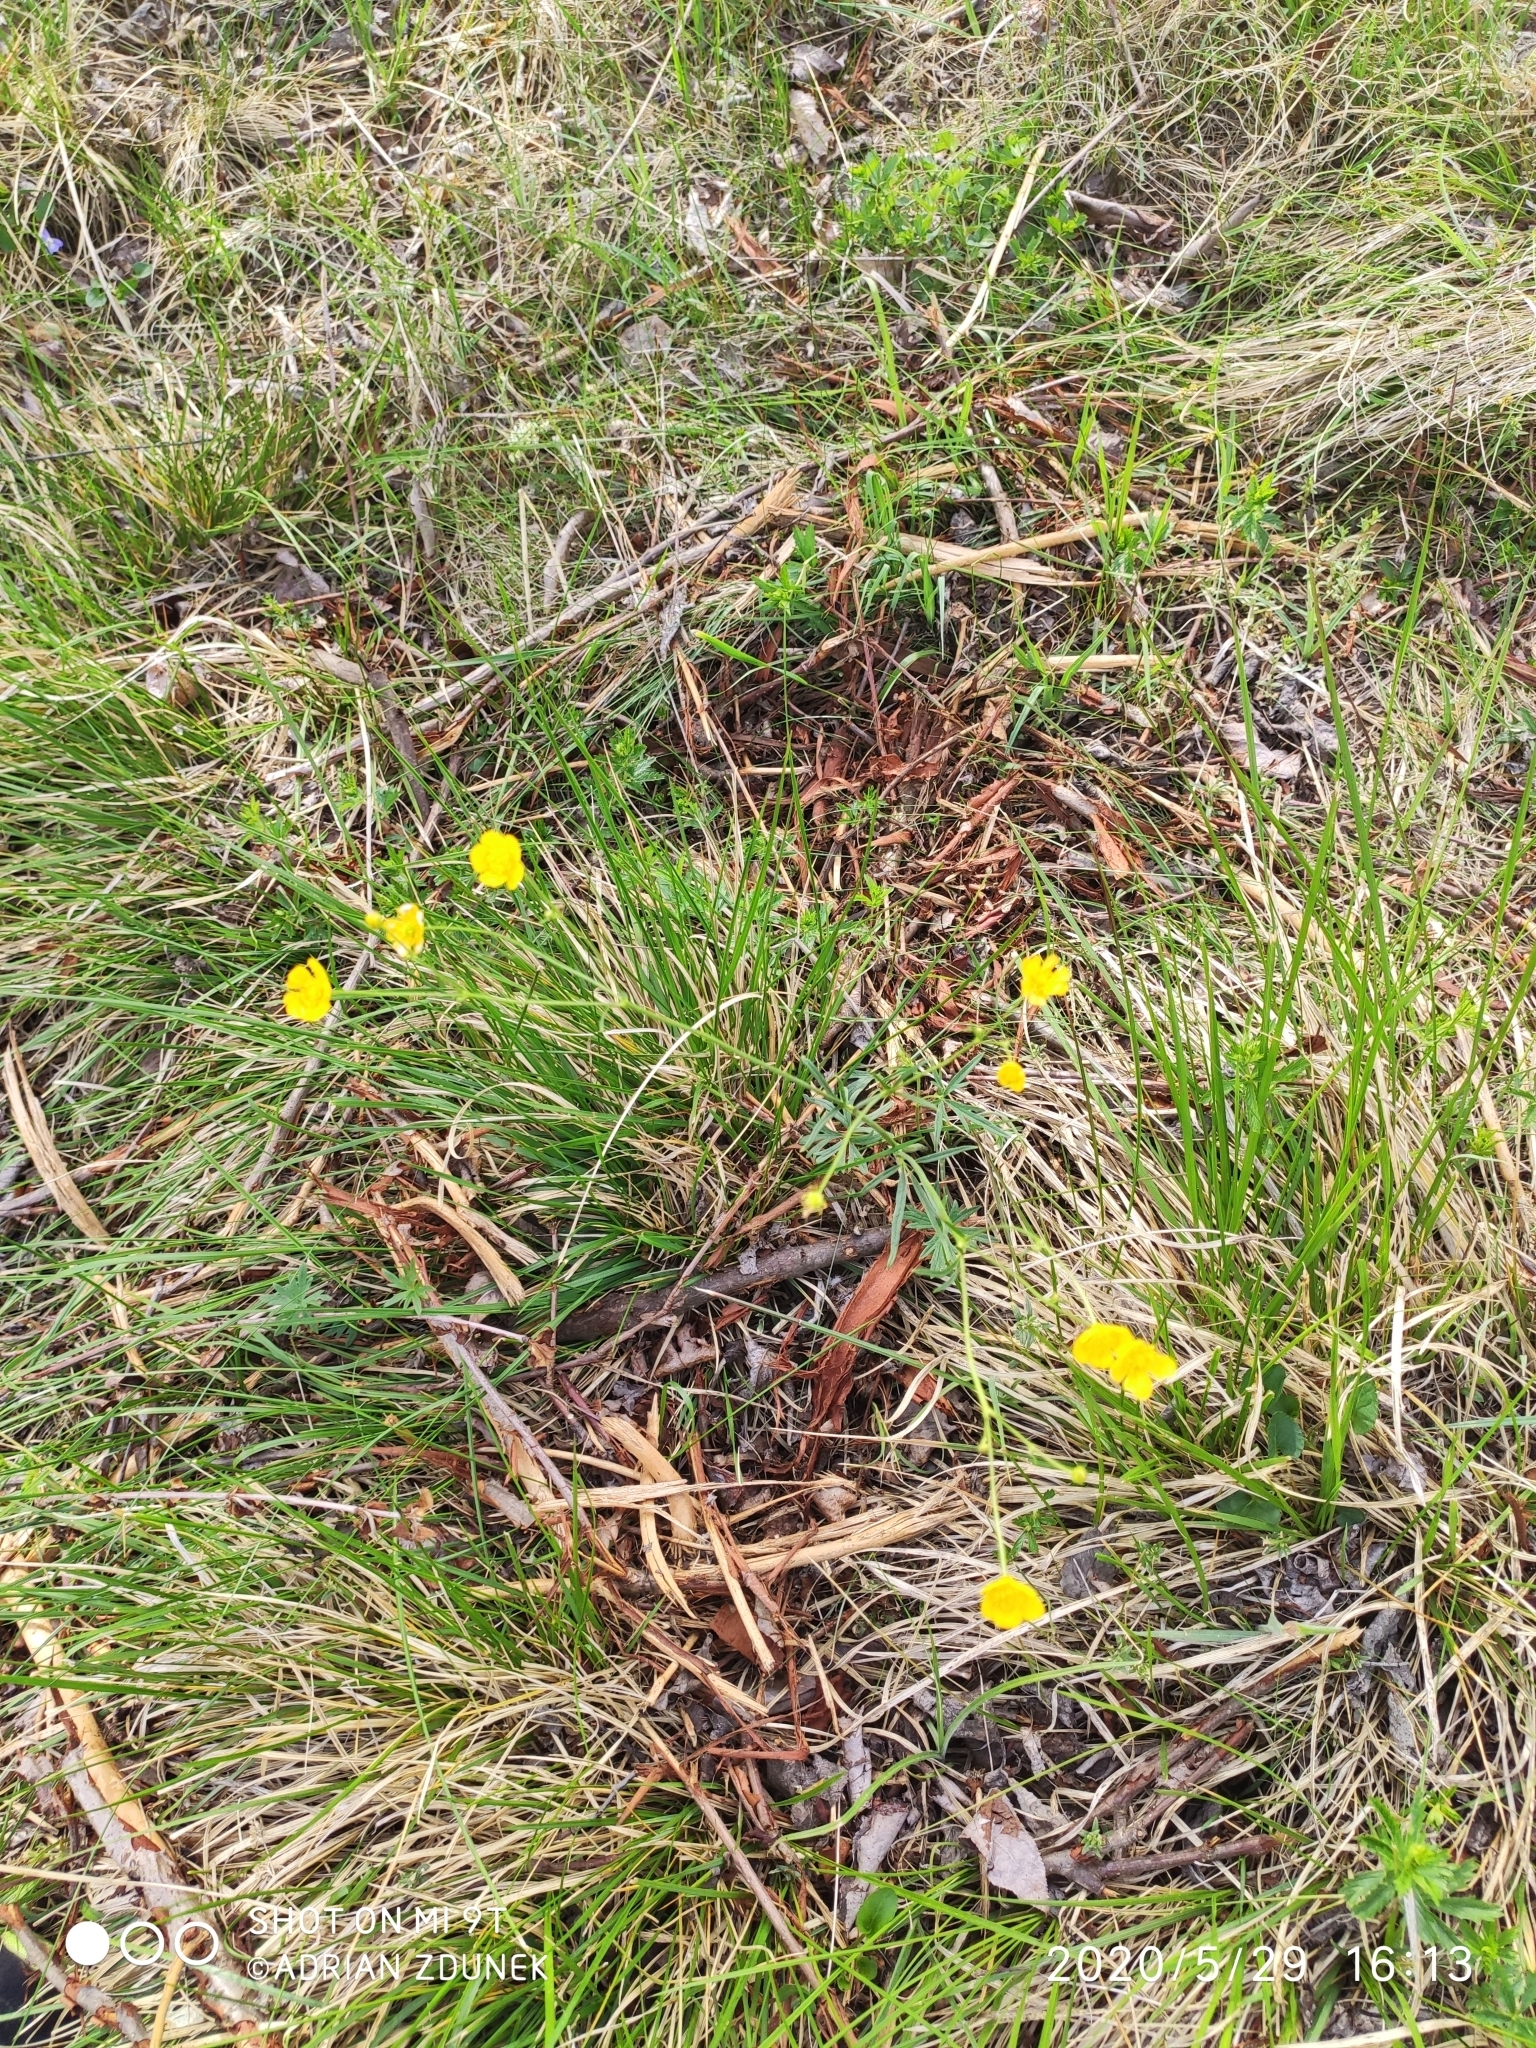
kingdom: Plantae
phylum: Tracheophyta
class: Magnoliopsida
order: Ranunculales
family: Ranunculaceae
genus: Ranunculus
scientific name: Ranunculus flammula
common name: Lesser spearwort
